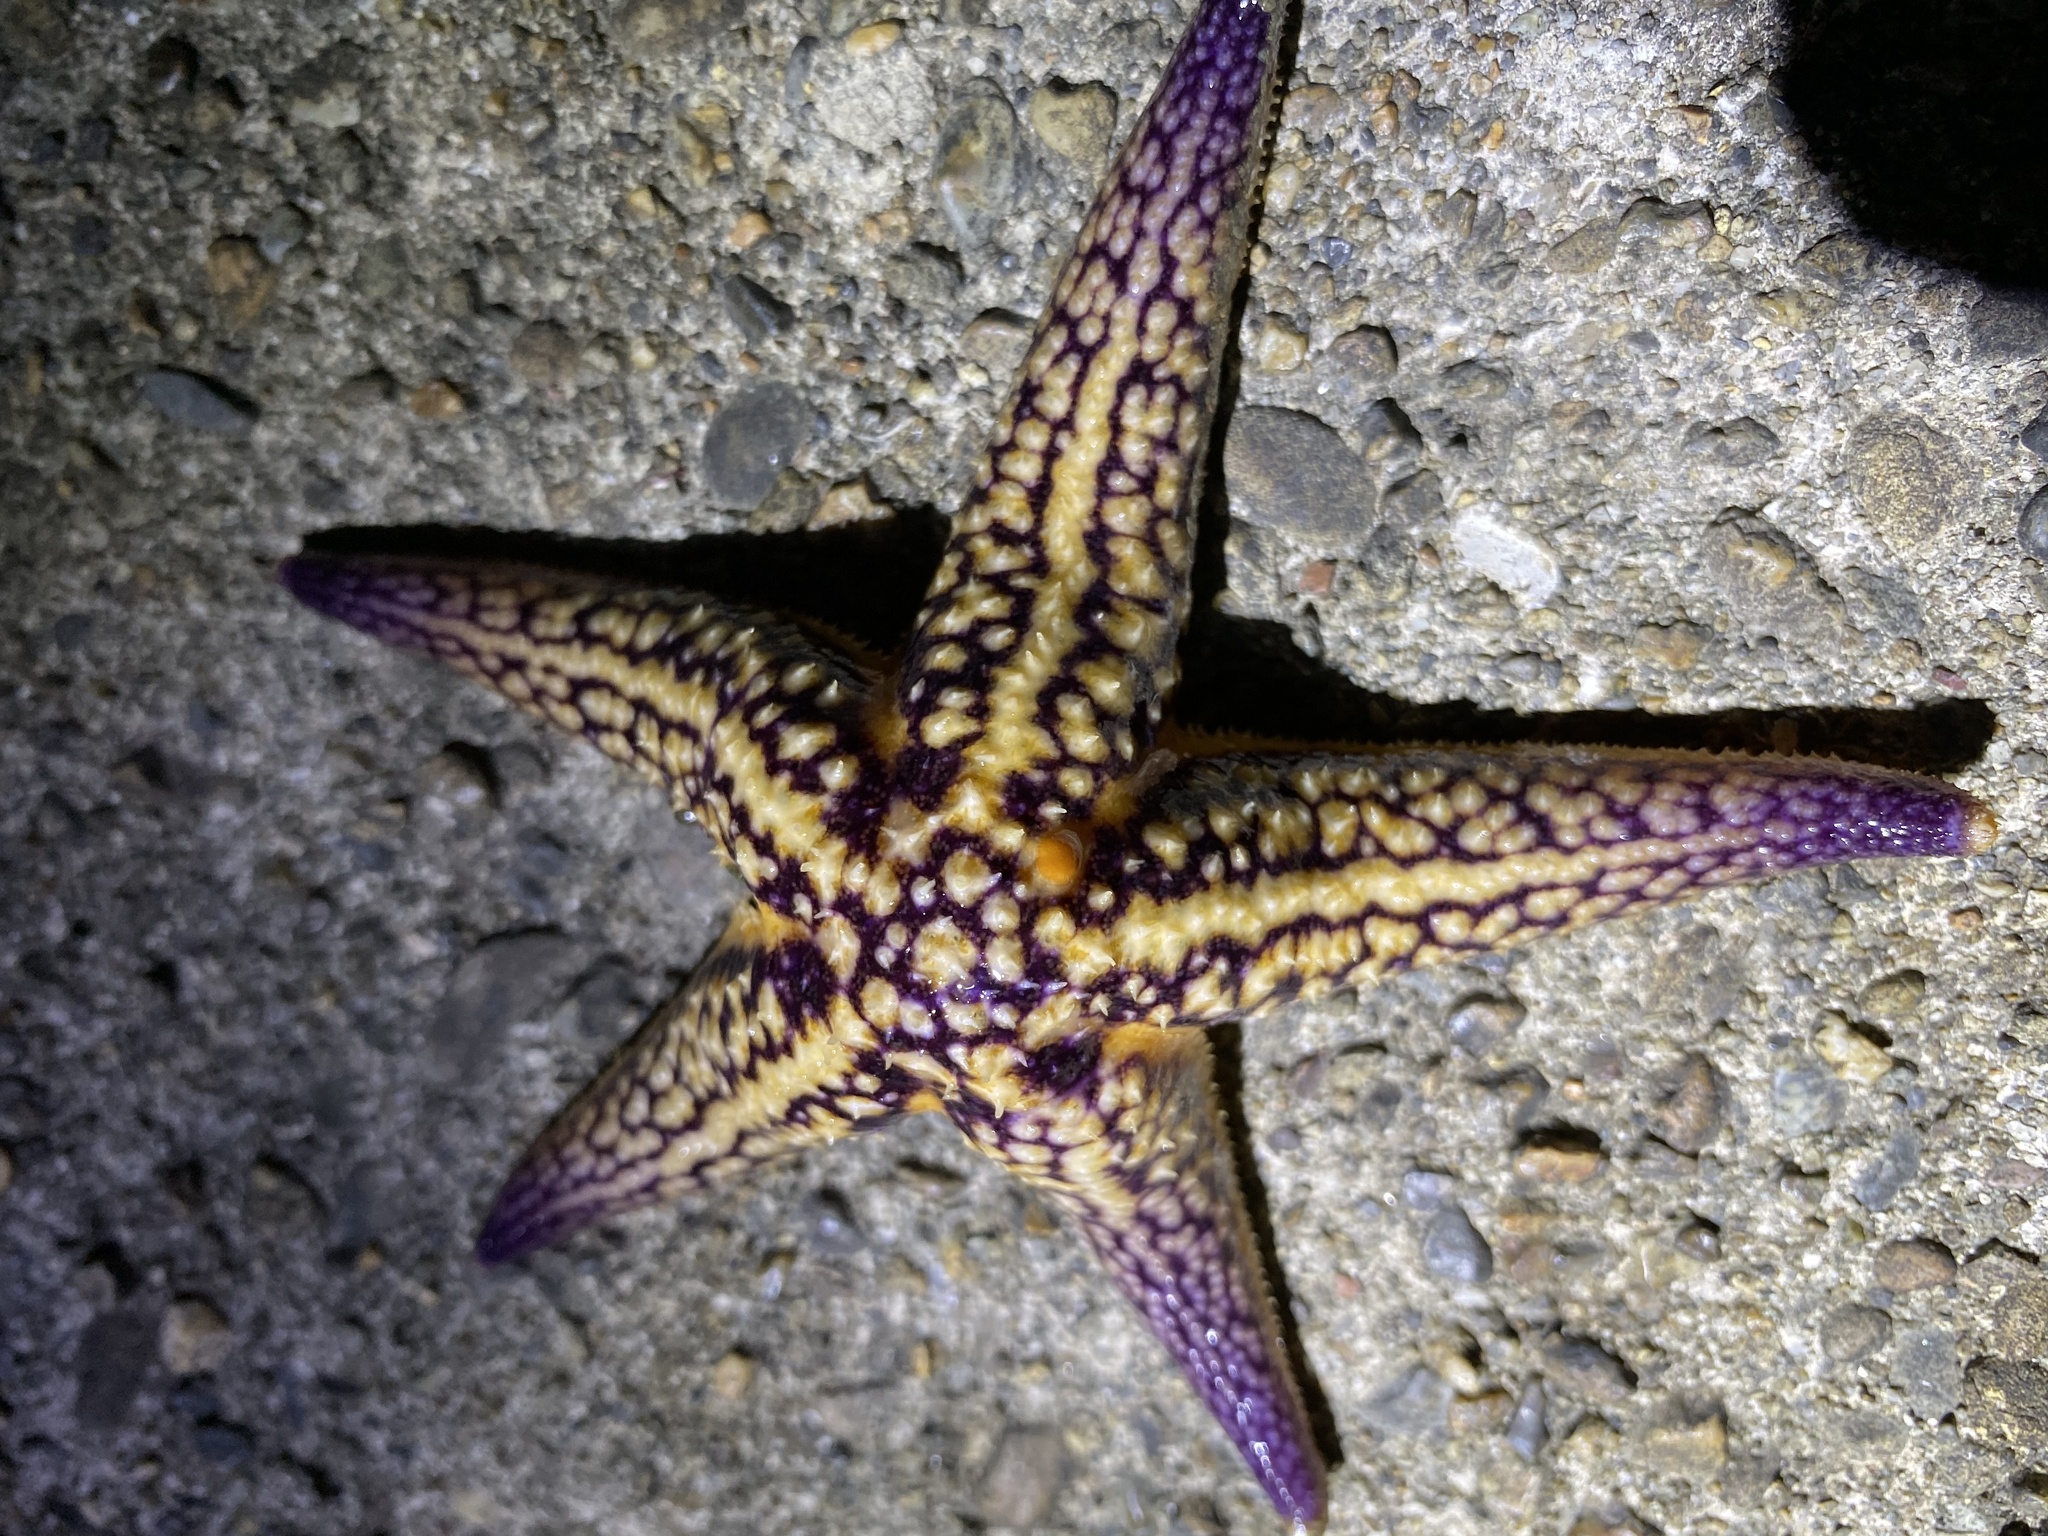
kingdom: Animalia
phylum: Echinodermata
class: Asteroidea
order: Forcipulatida
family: Asteriidae
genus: Asterias
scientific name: Asterias amurensis
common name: Flat-bottomed star
